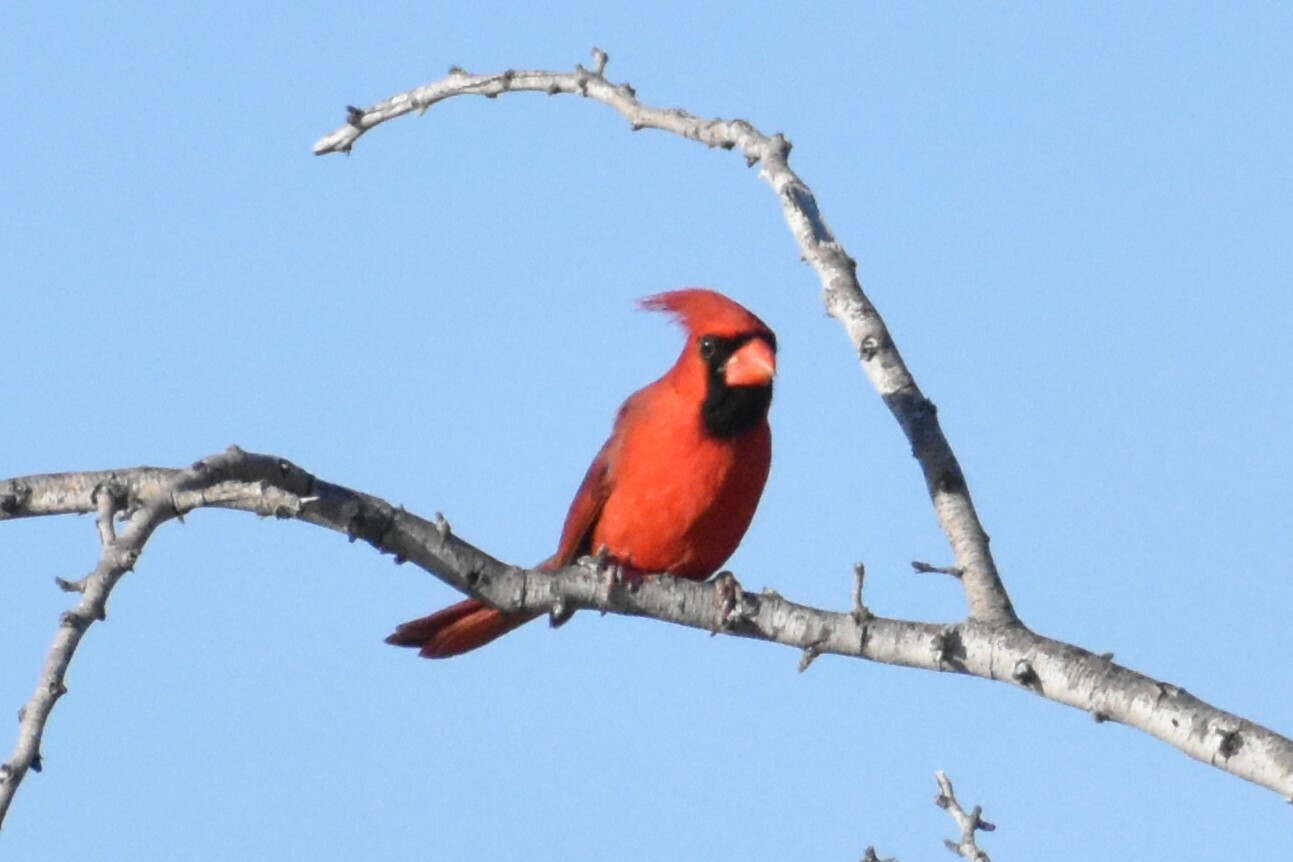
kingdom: Animalia
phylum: Chordata
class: Aves
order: Passeriformes
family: Cardinalidae
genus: Cardinalis
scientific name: Cardinalis cardinalis
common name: Northern cardinal
